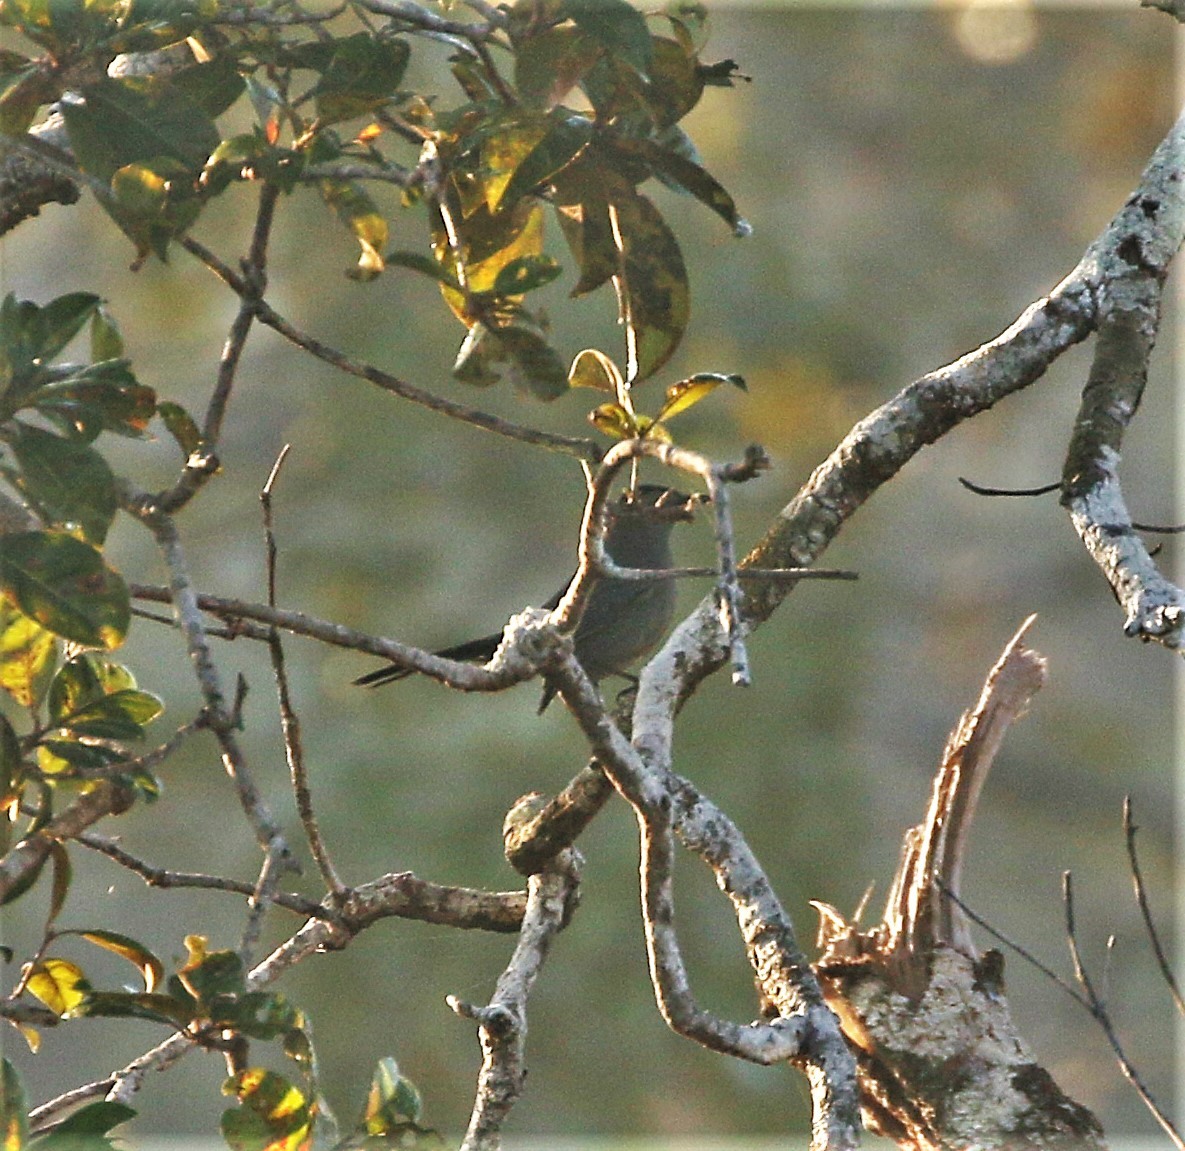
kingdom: Animalia
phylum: Chordata
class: Aves
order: Passeriformes
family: Mimidae
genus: Dumetella
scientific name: Dumetella carolinensis
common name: Gray catbird
